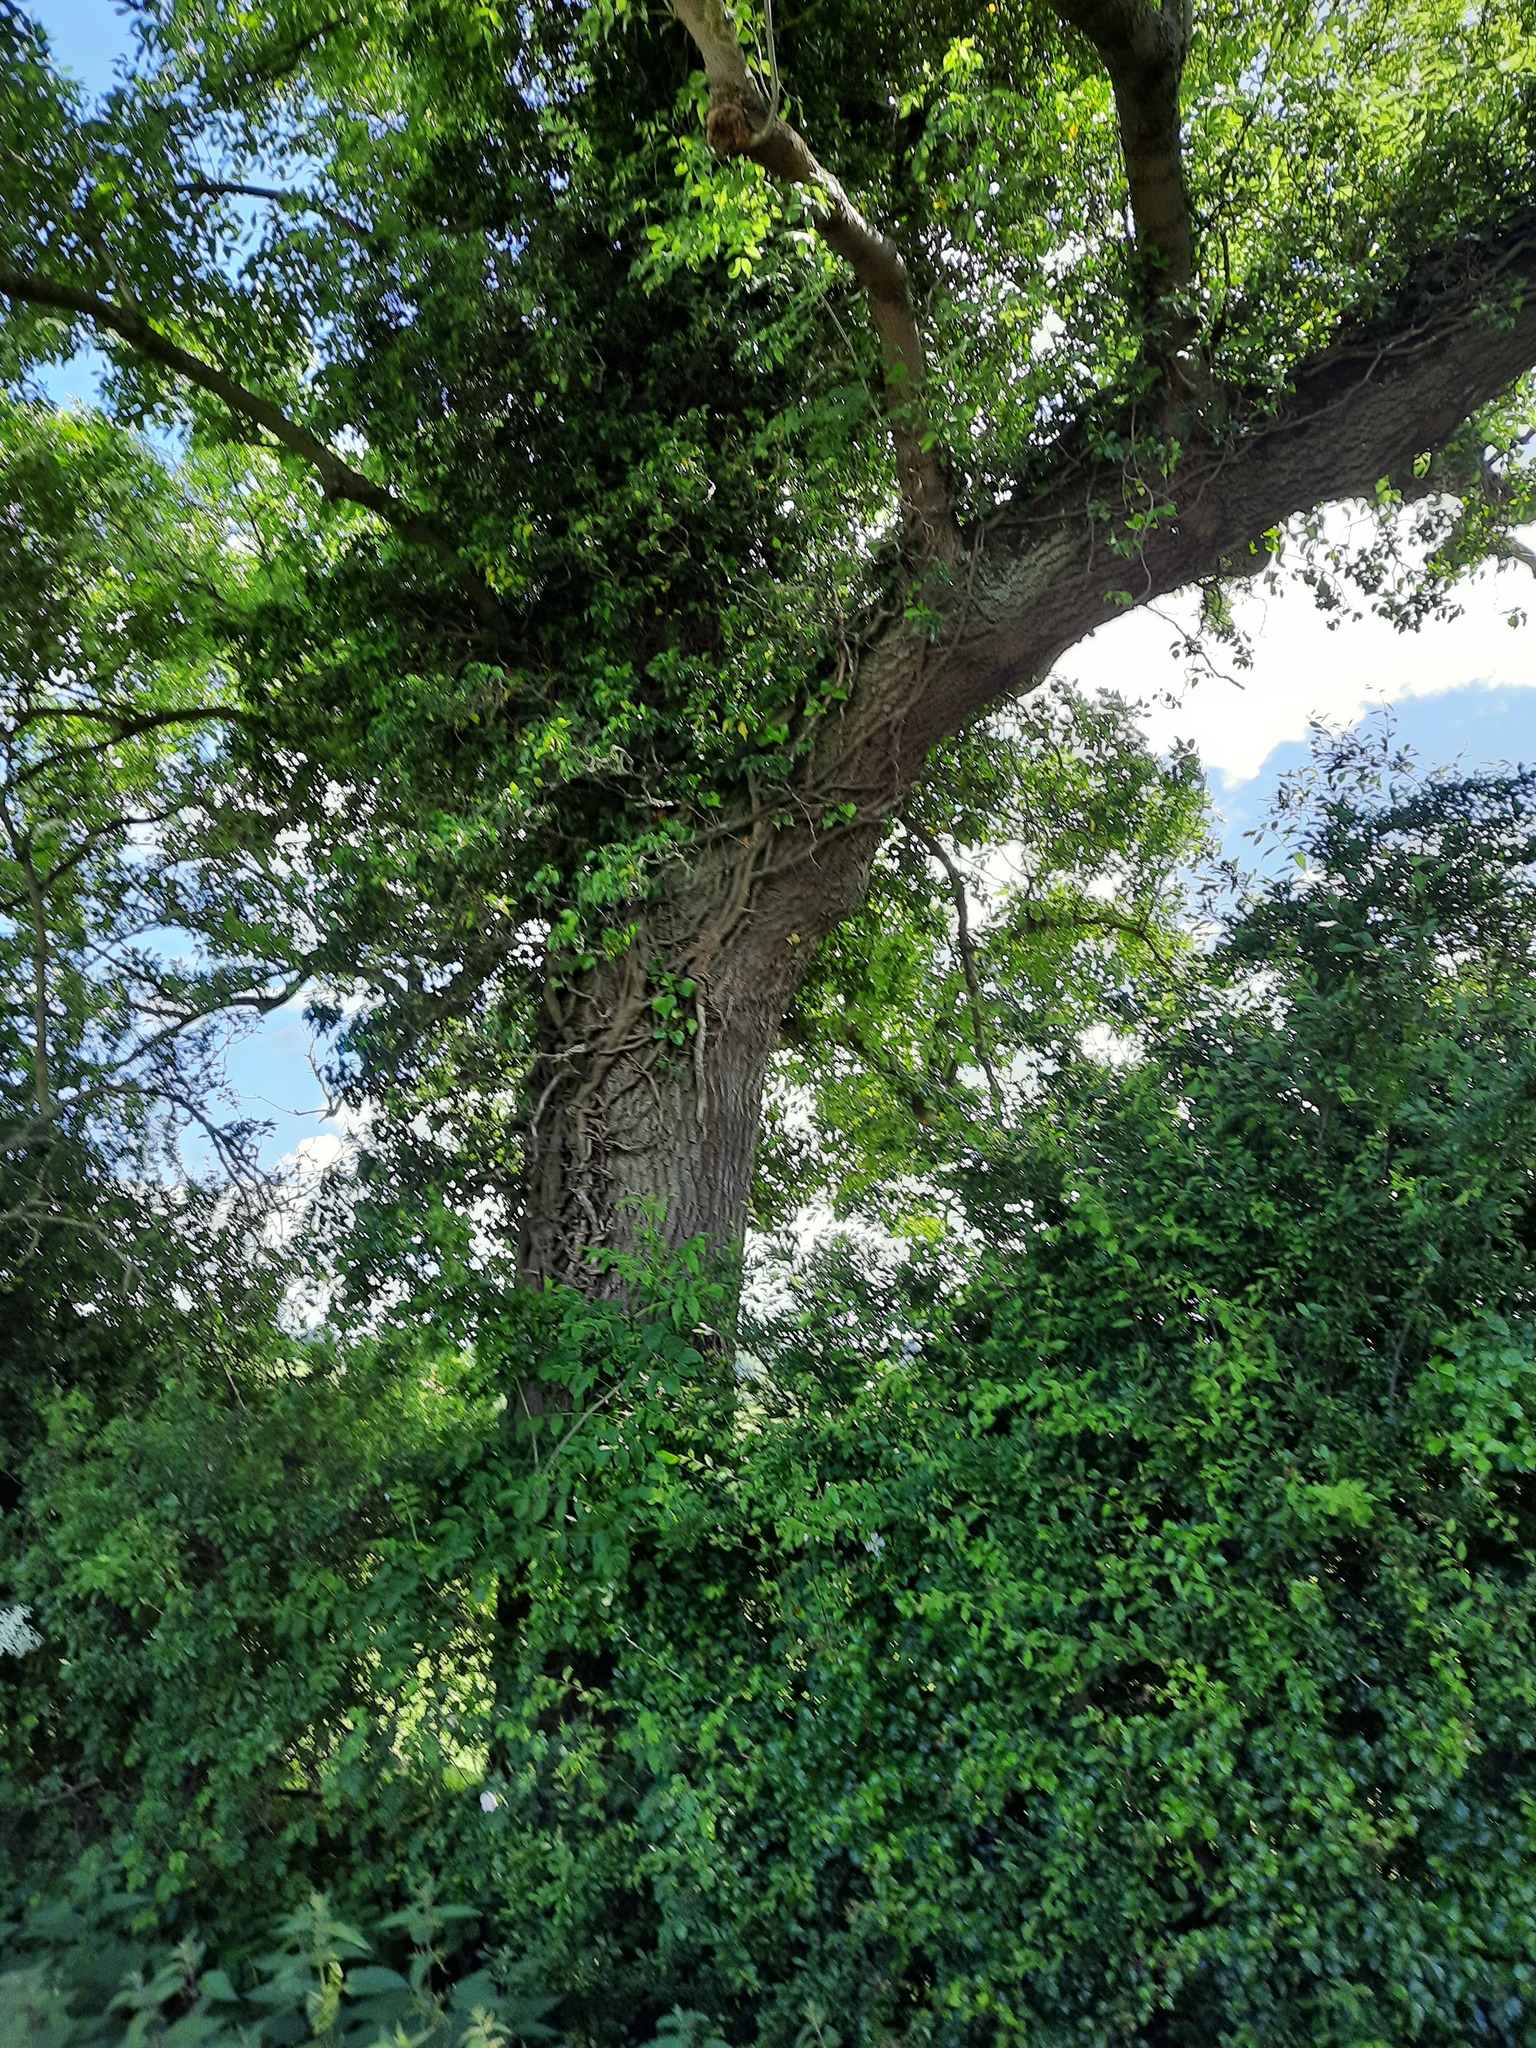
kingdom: Plantae
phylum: Tracheophyta
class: Magnoliopsida
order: Fagales
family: Fagaceae
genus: Quercus
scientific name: Quercus robur
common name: Pedunculate oak
